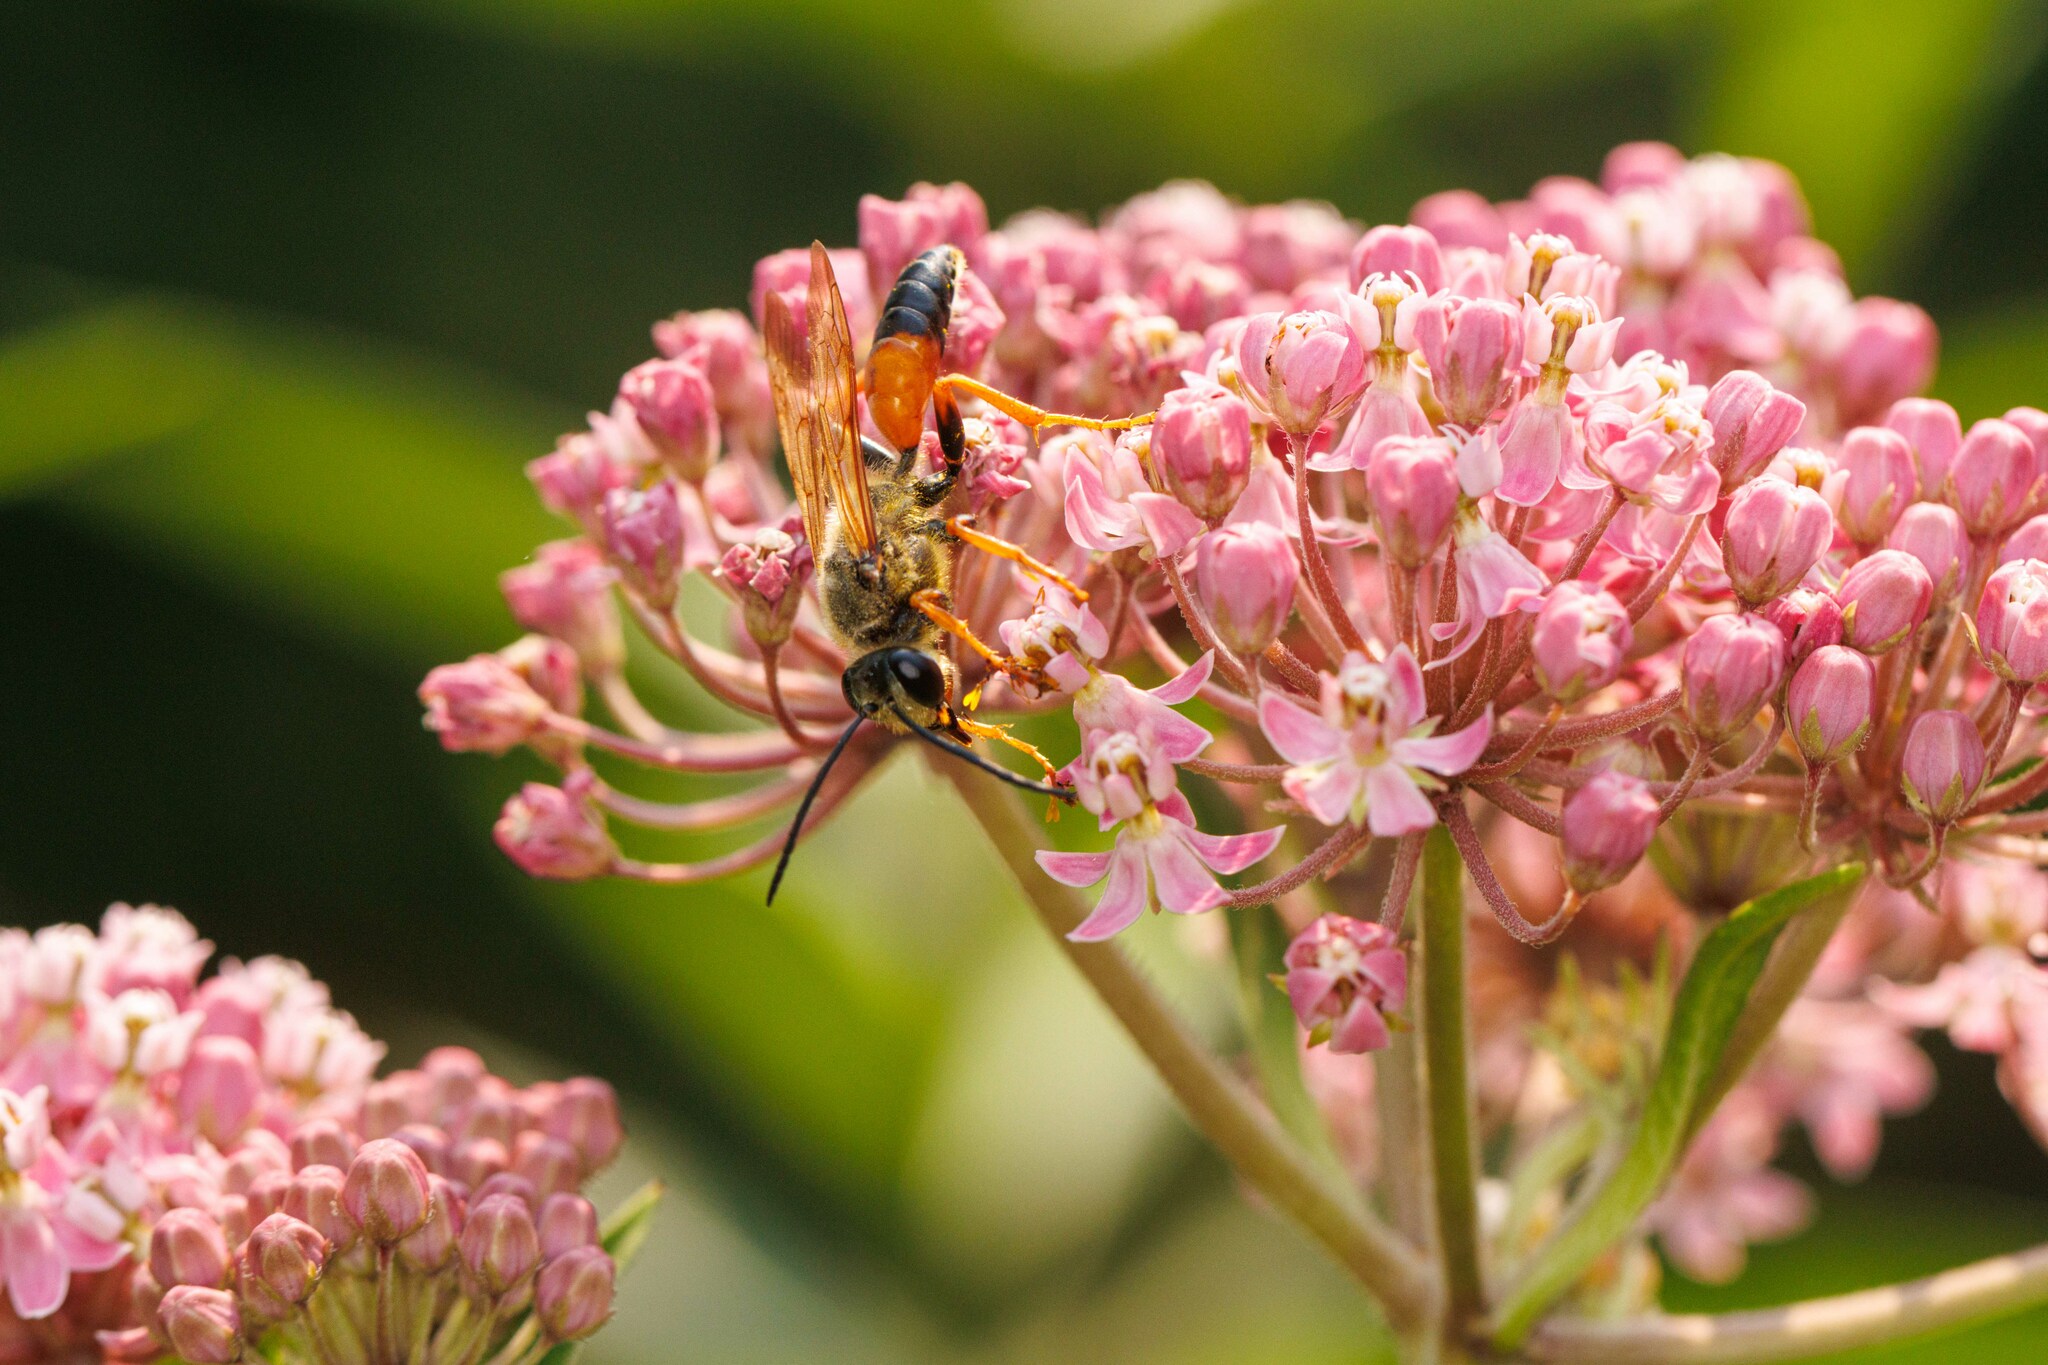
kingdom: Animalia
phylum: Arthropoda
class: Insecta
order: Hymenoptera
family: Sphecidae
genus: Sphex
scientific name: Sphex ichneumoneus
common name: Great golden digger wasp
